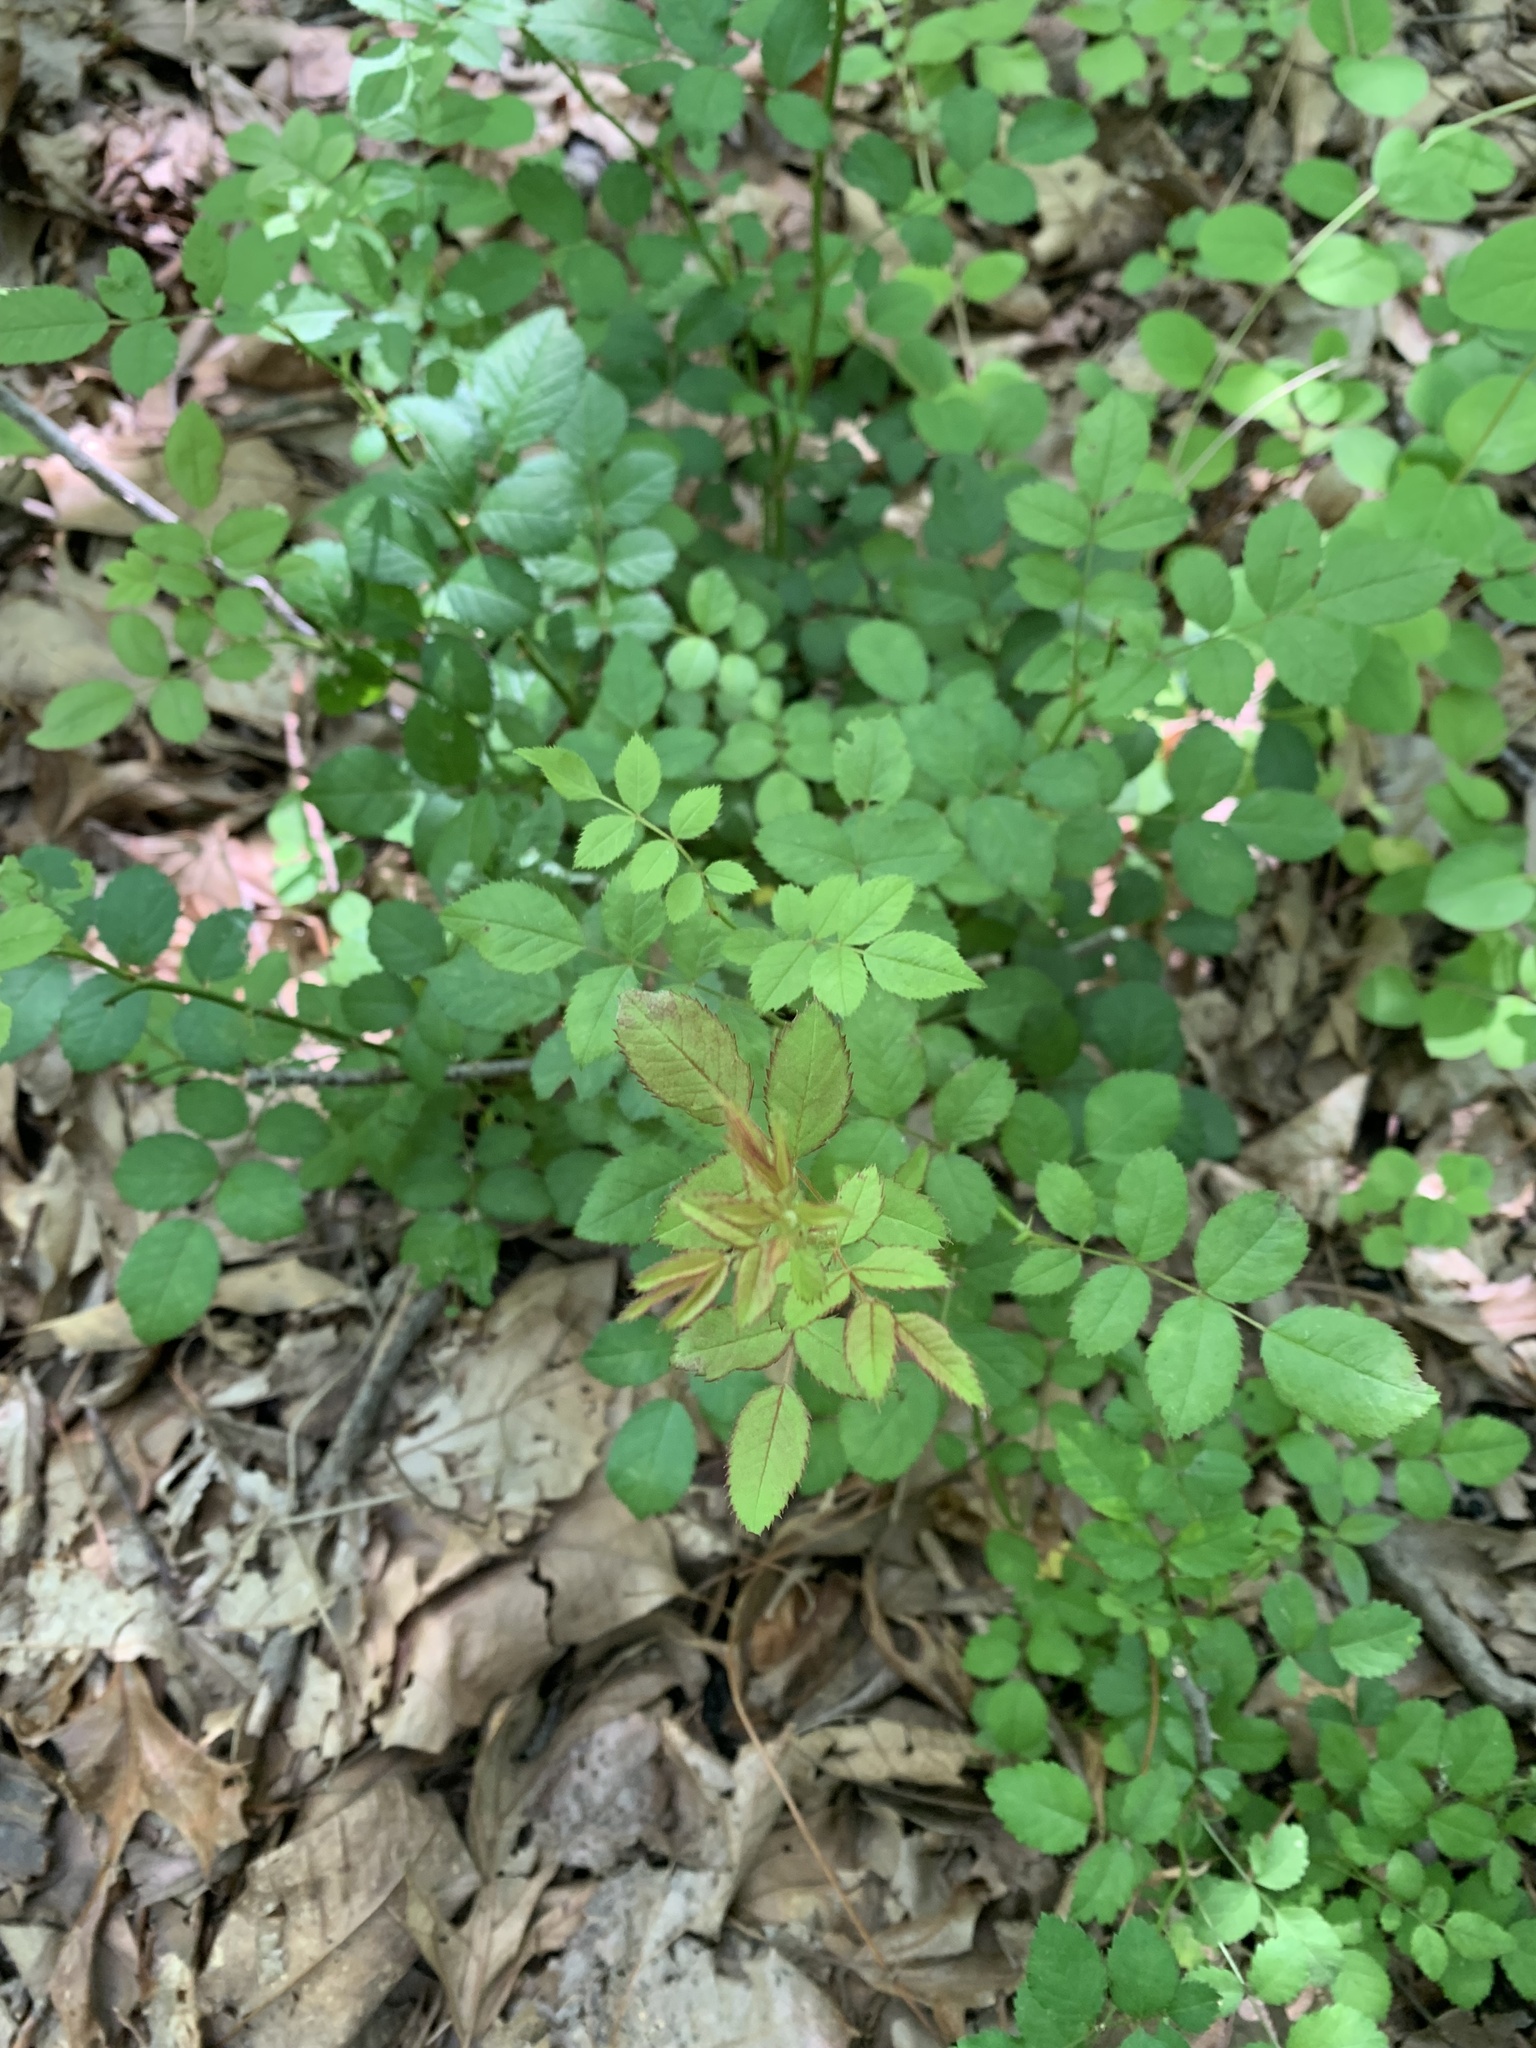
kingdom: Plantae
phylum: Tracheophyta
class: Magnoliopsida
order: Rosales
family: Rosaceae
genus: Rosa
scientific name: Rosa multiflora
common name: Multiflora rose
